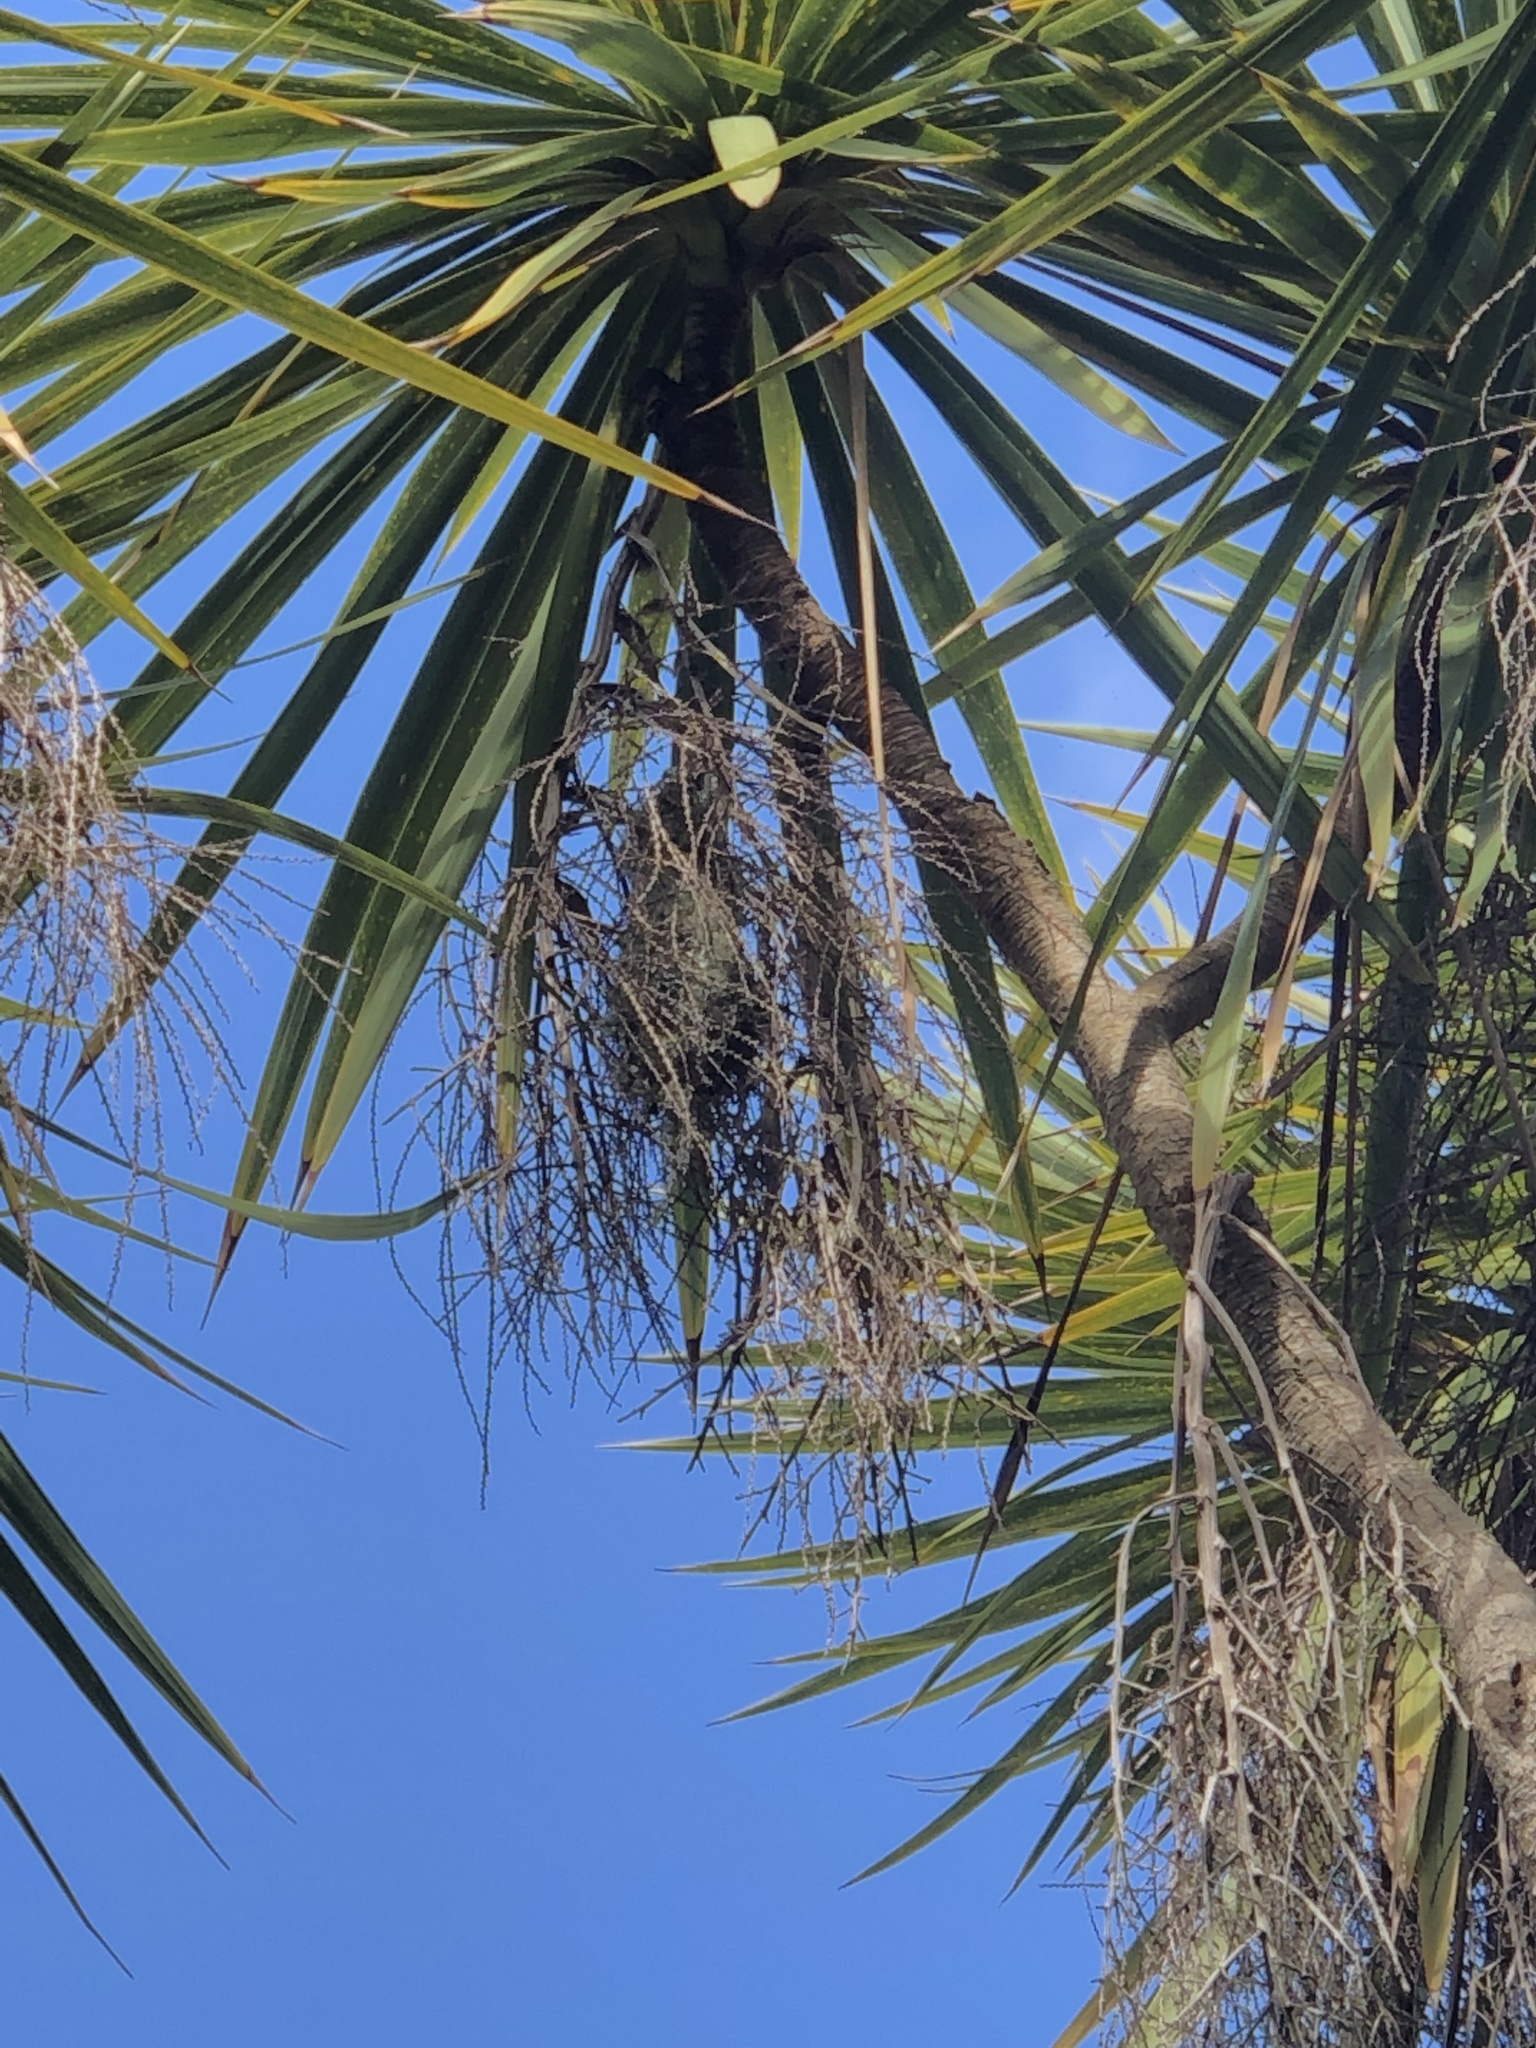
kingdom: Animalia
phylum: Chordata
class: Aves
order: Passeriformes
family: Aegithalidae
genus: Psaltriparus
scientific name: Psaltriparus minimus
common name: American bushtit
